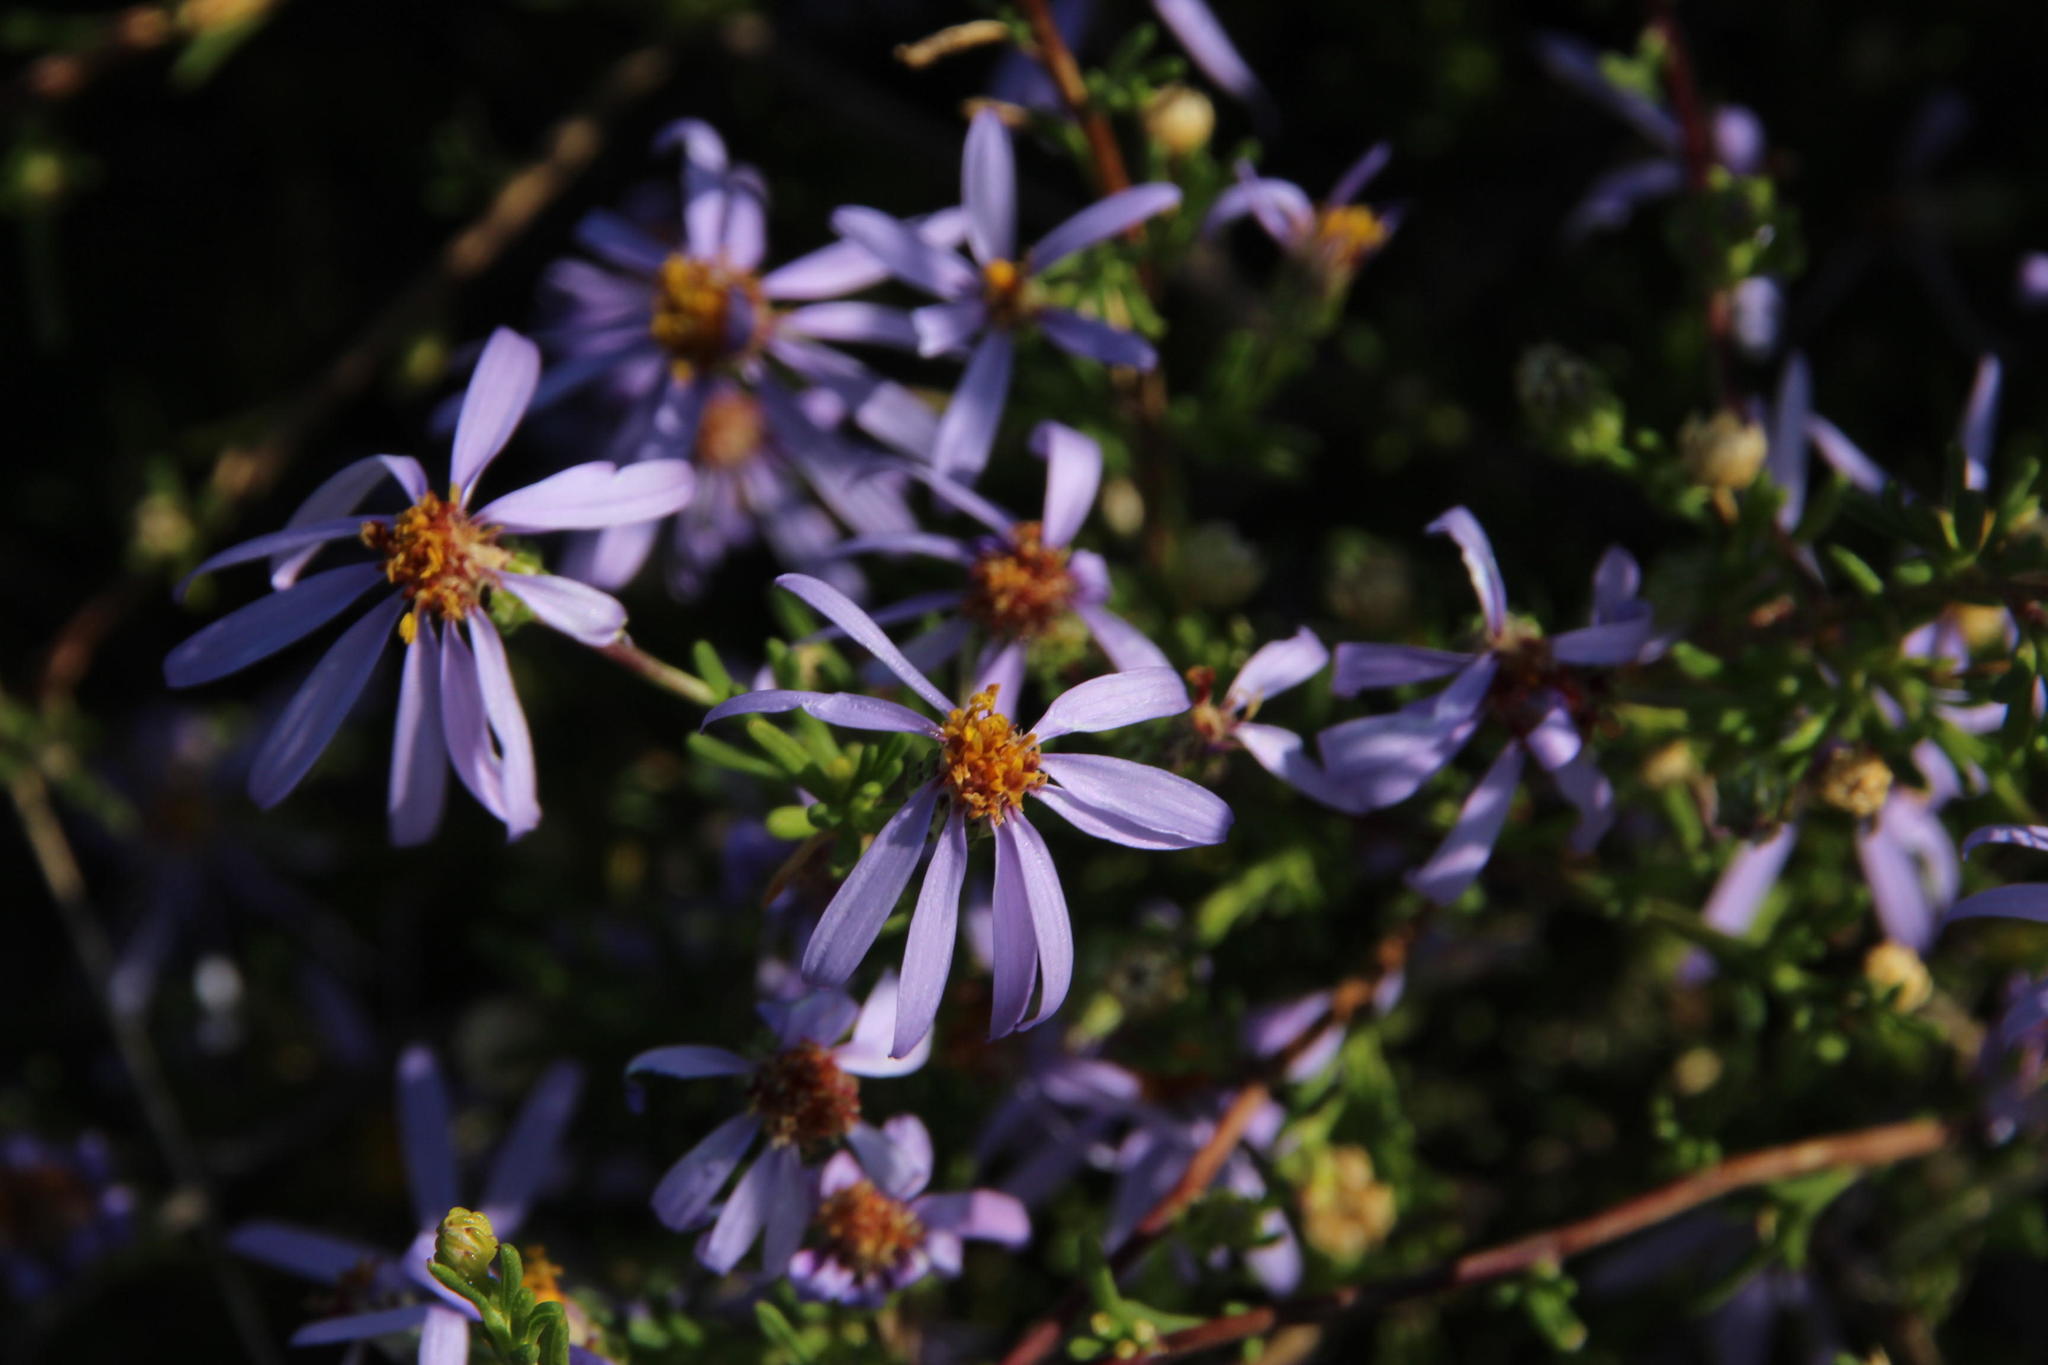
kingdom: Plantae
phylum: Tracheophyta
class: Magnoliopsida
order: Asterales
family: Asteraceae
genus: Felicia
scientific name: Felicia filifolia
